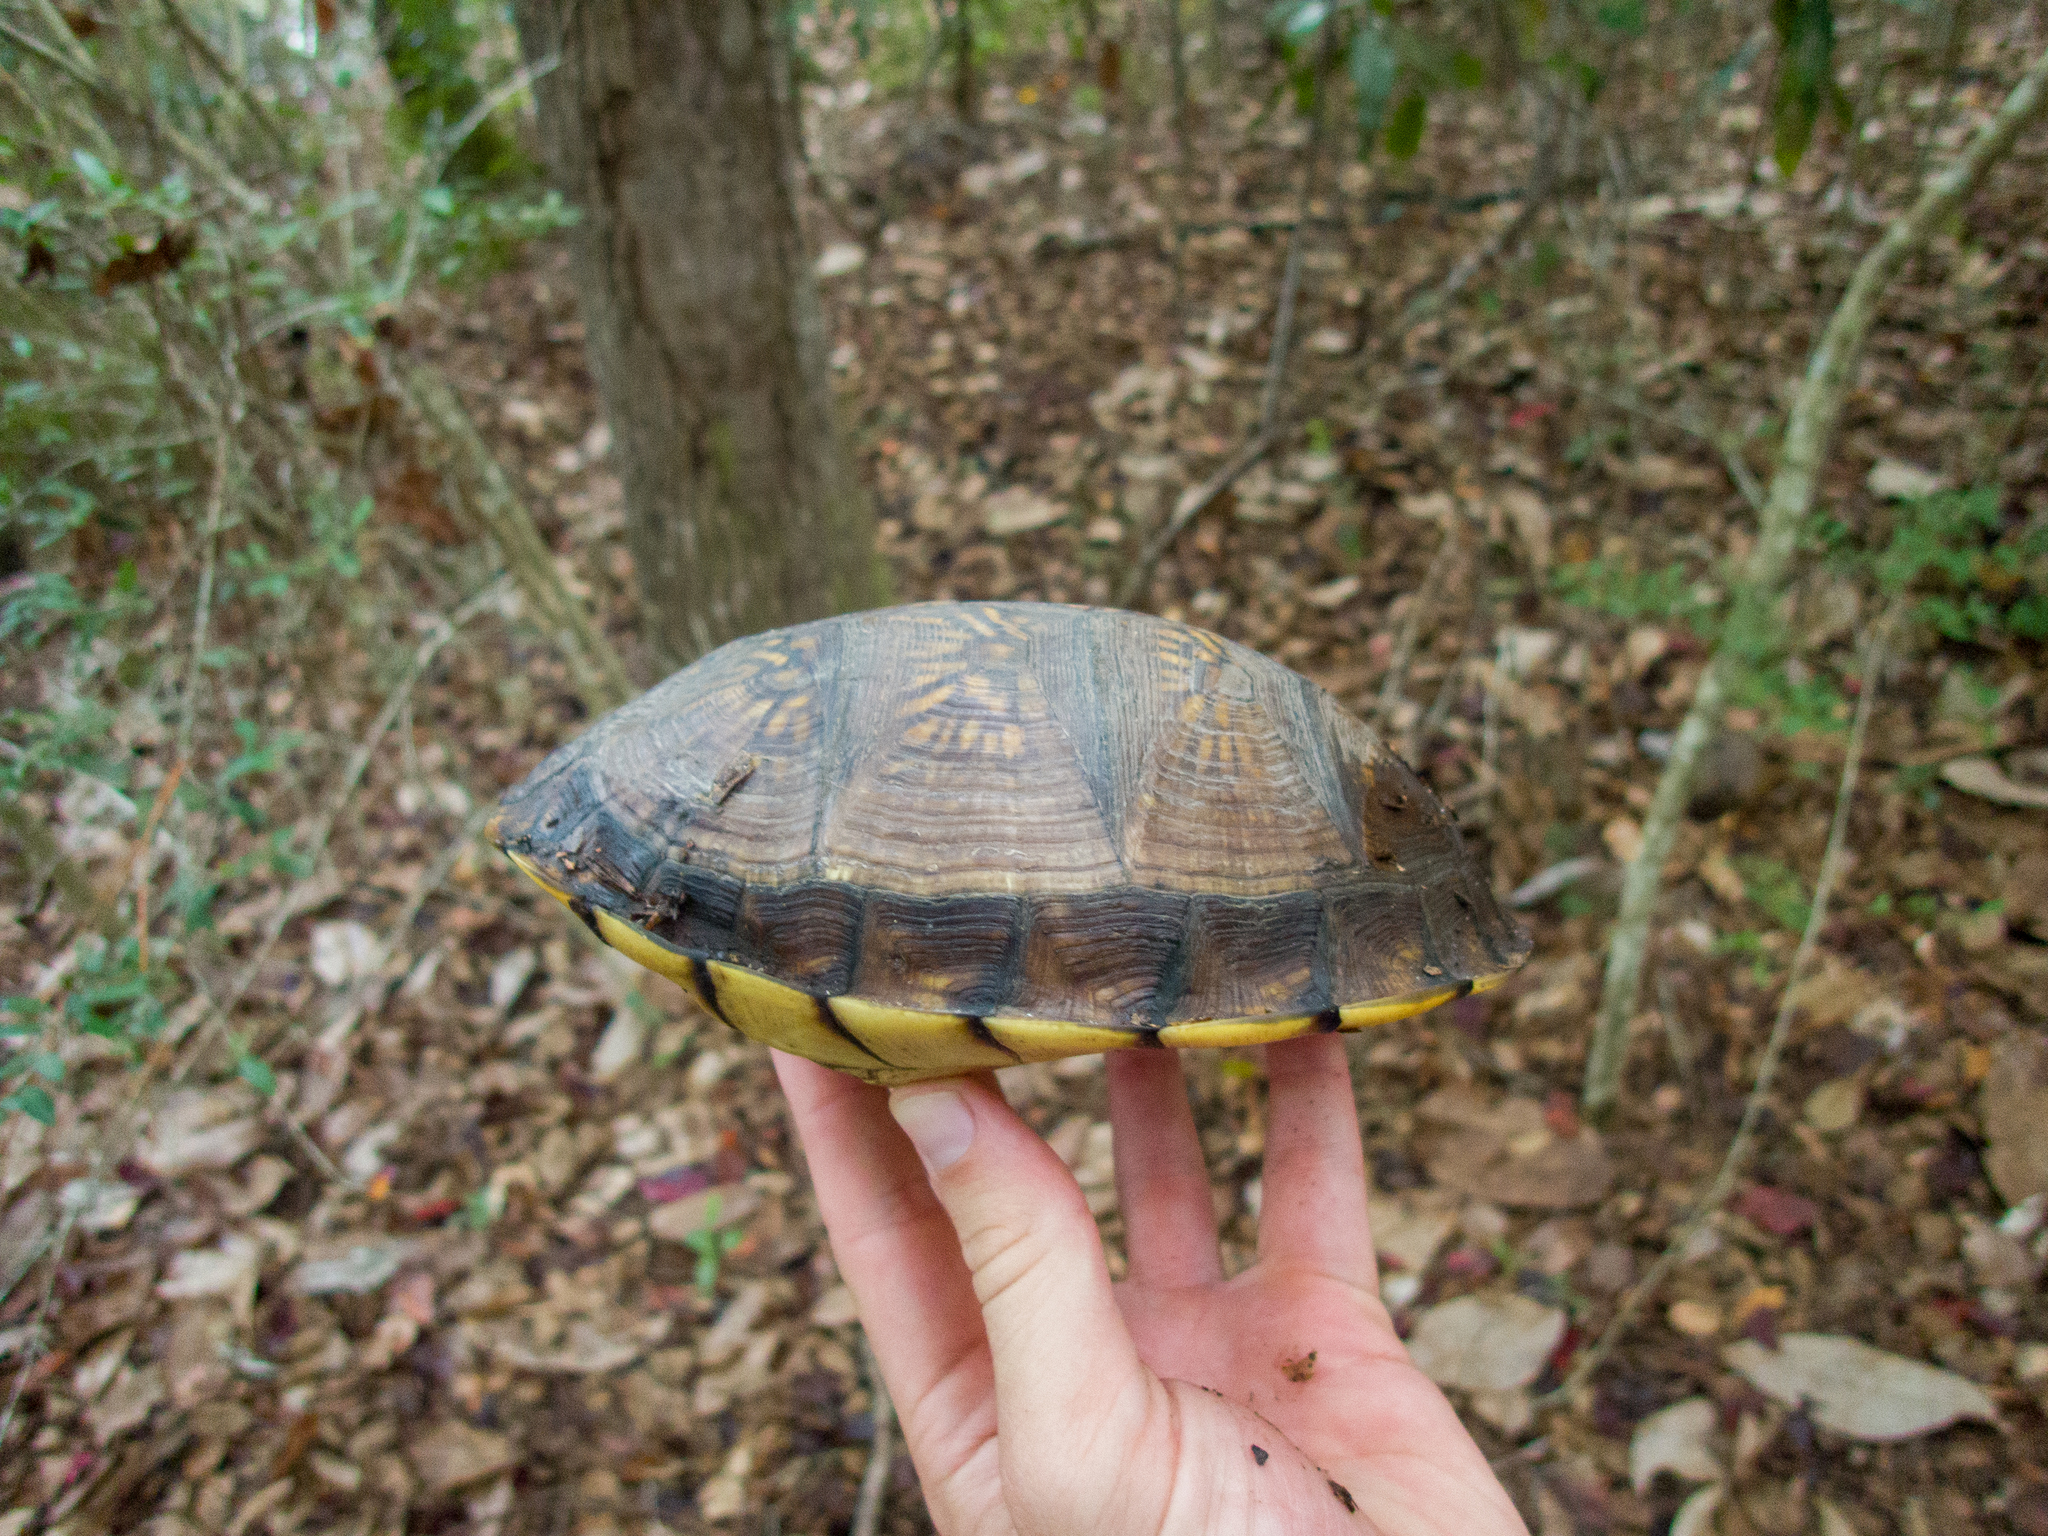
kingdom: Animalia
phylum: Chordata
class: Testudines
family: Emydidae
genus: Terrapene
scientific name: Terrapene carolina
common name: Common box turtle
